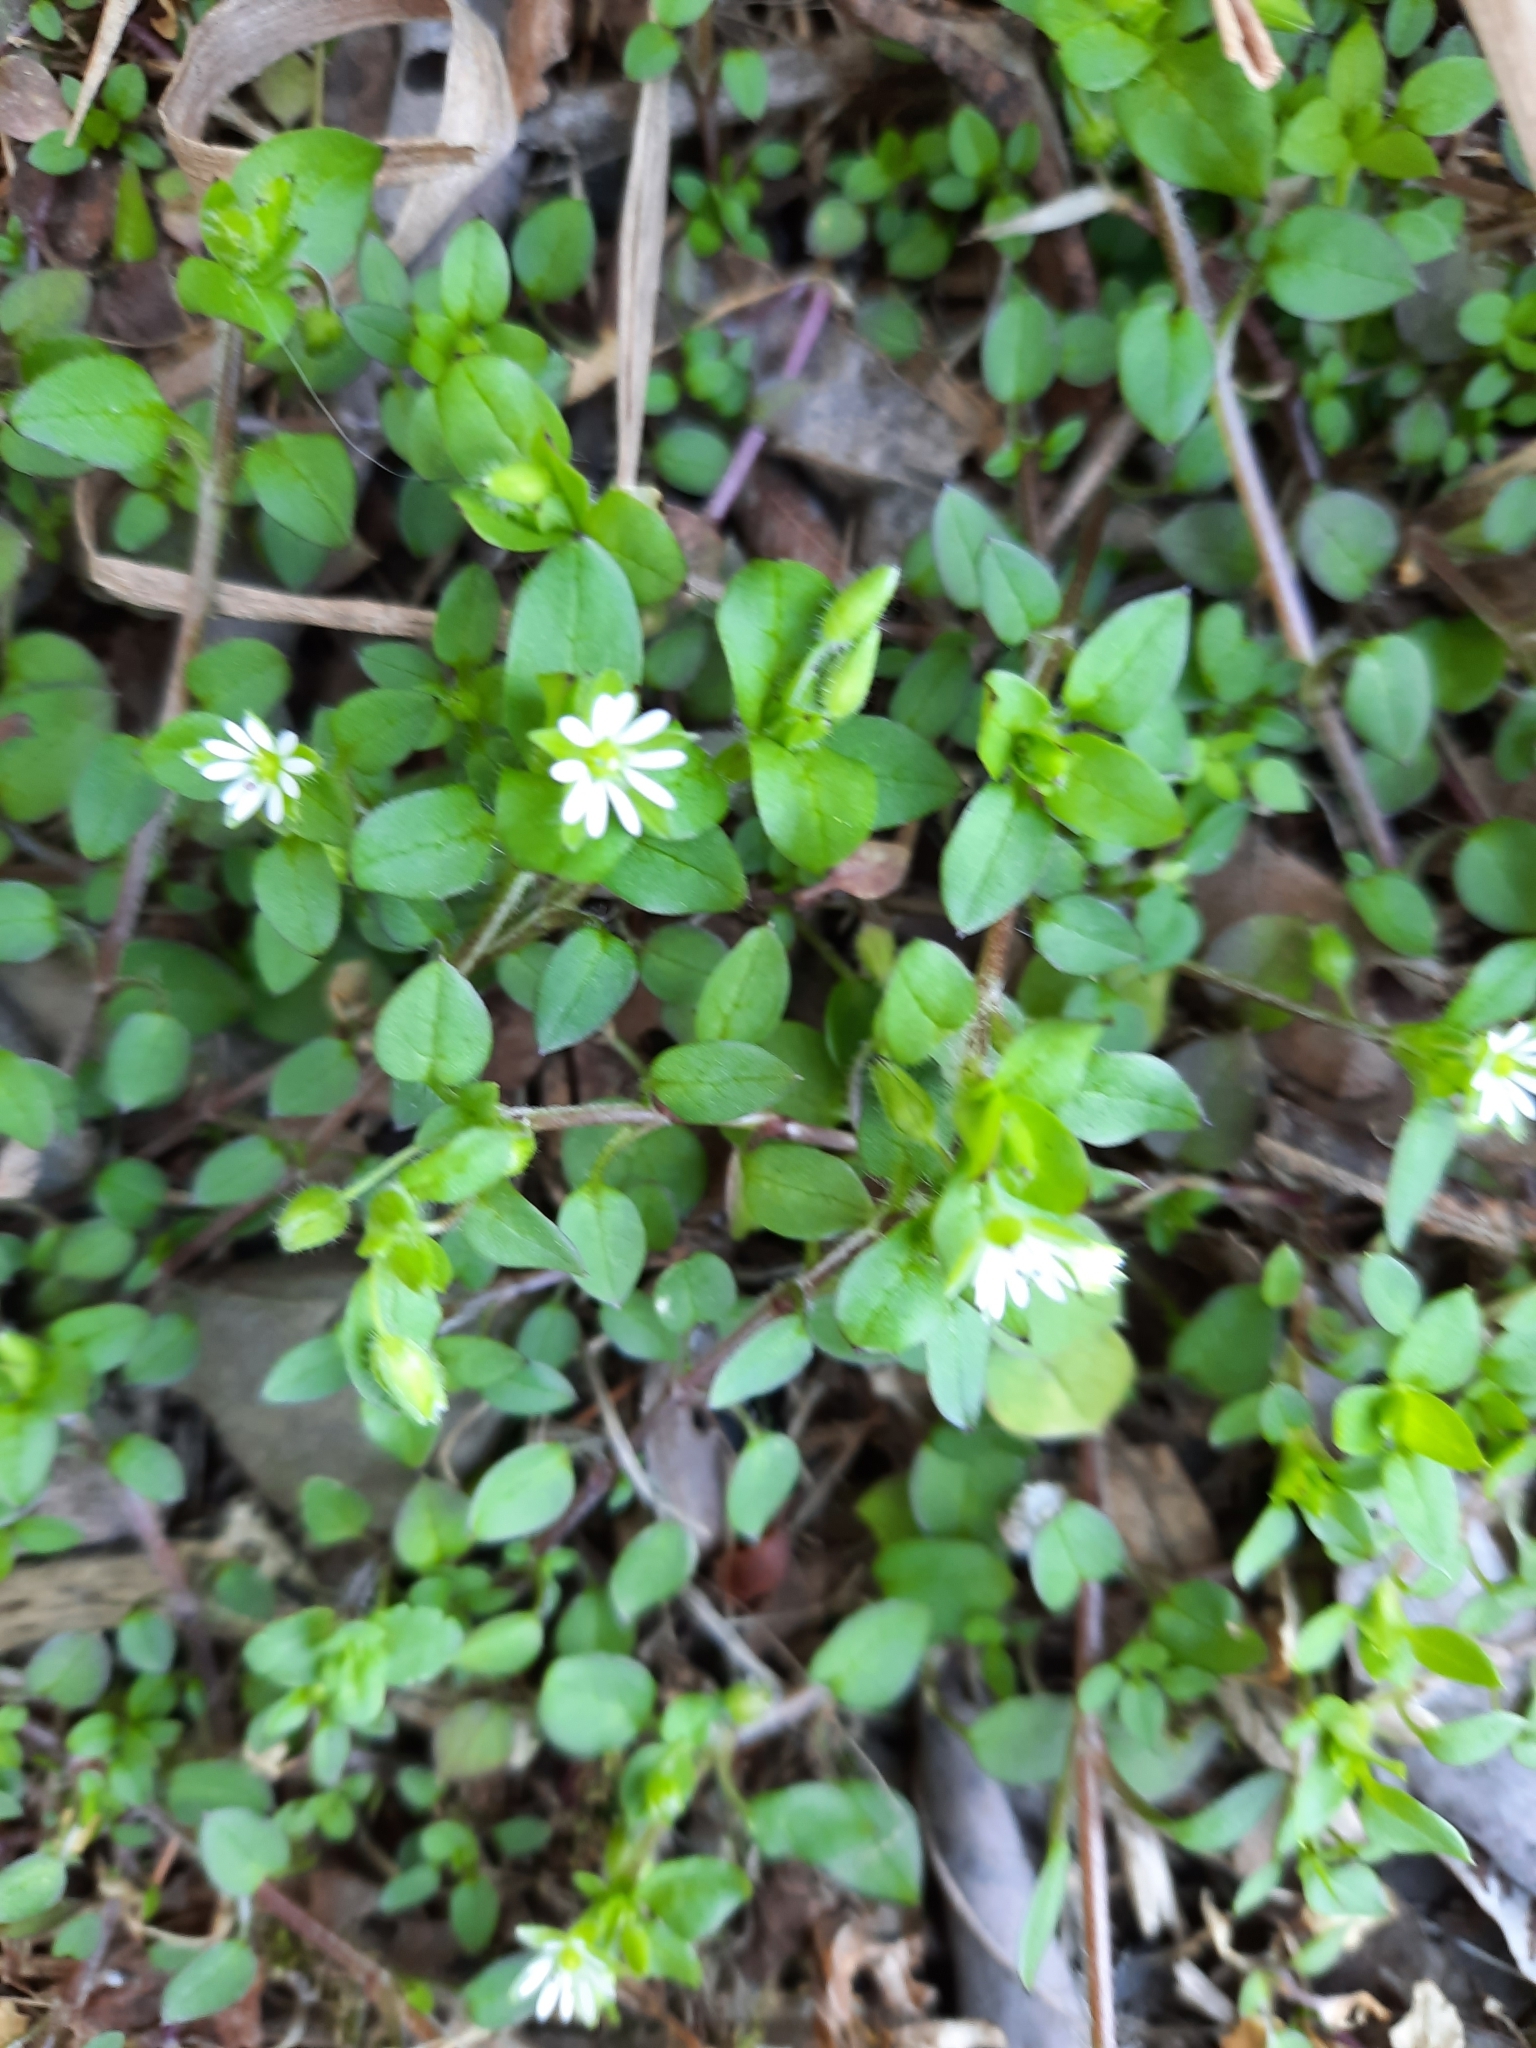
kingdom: Plantae
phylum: Tracheophyta
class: Magnoliopsida
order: Caryophyllales
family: Caryophyllaceae
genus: Stellaria
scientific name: Stellaria media
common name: Common chickweed
